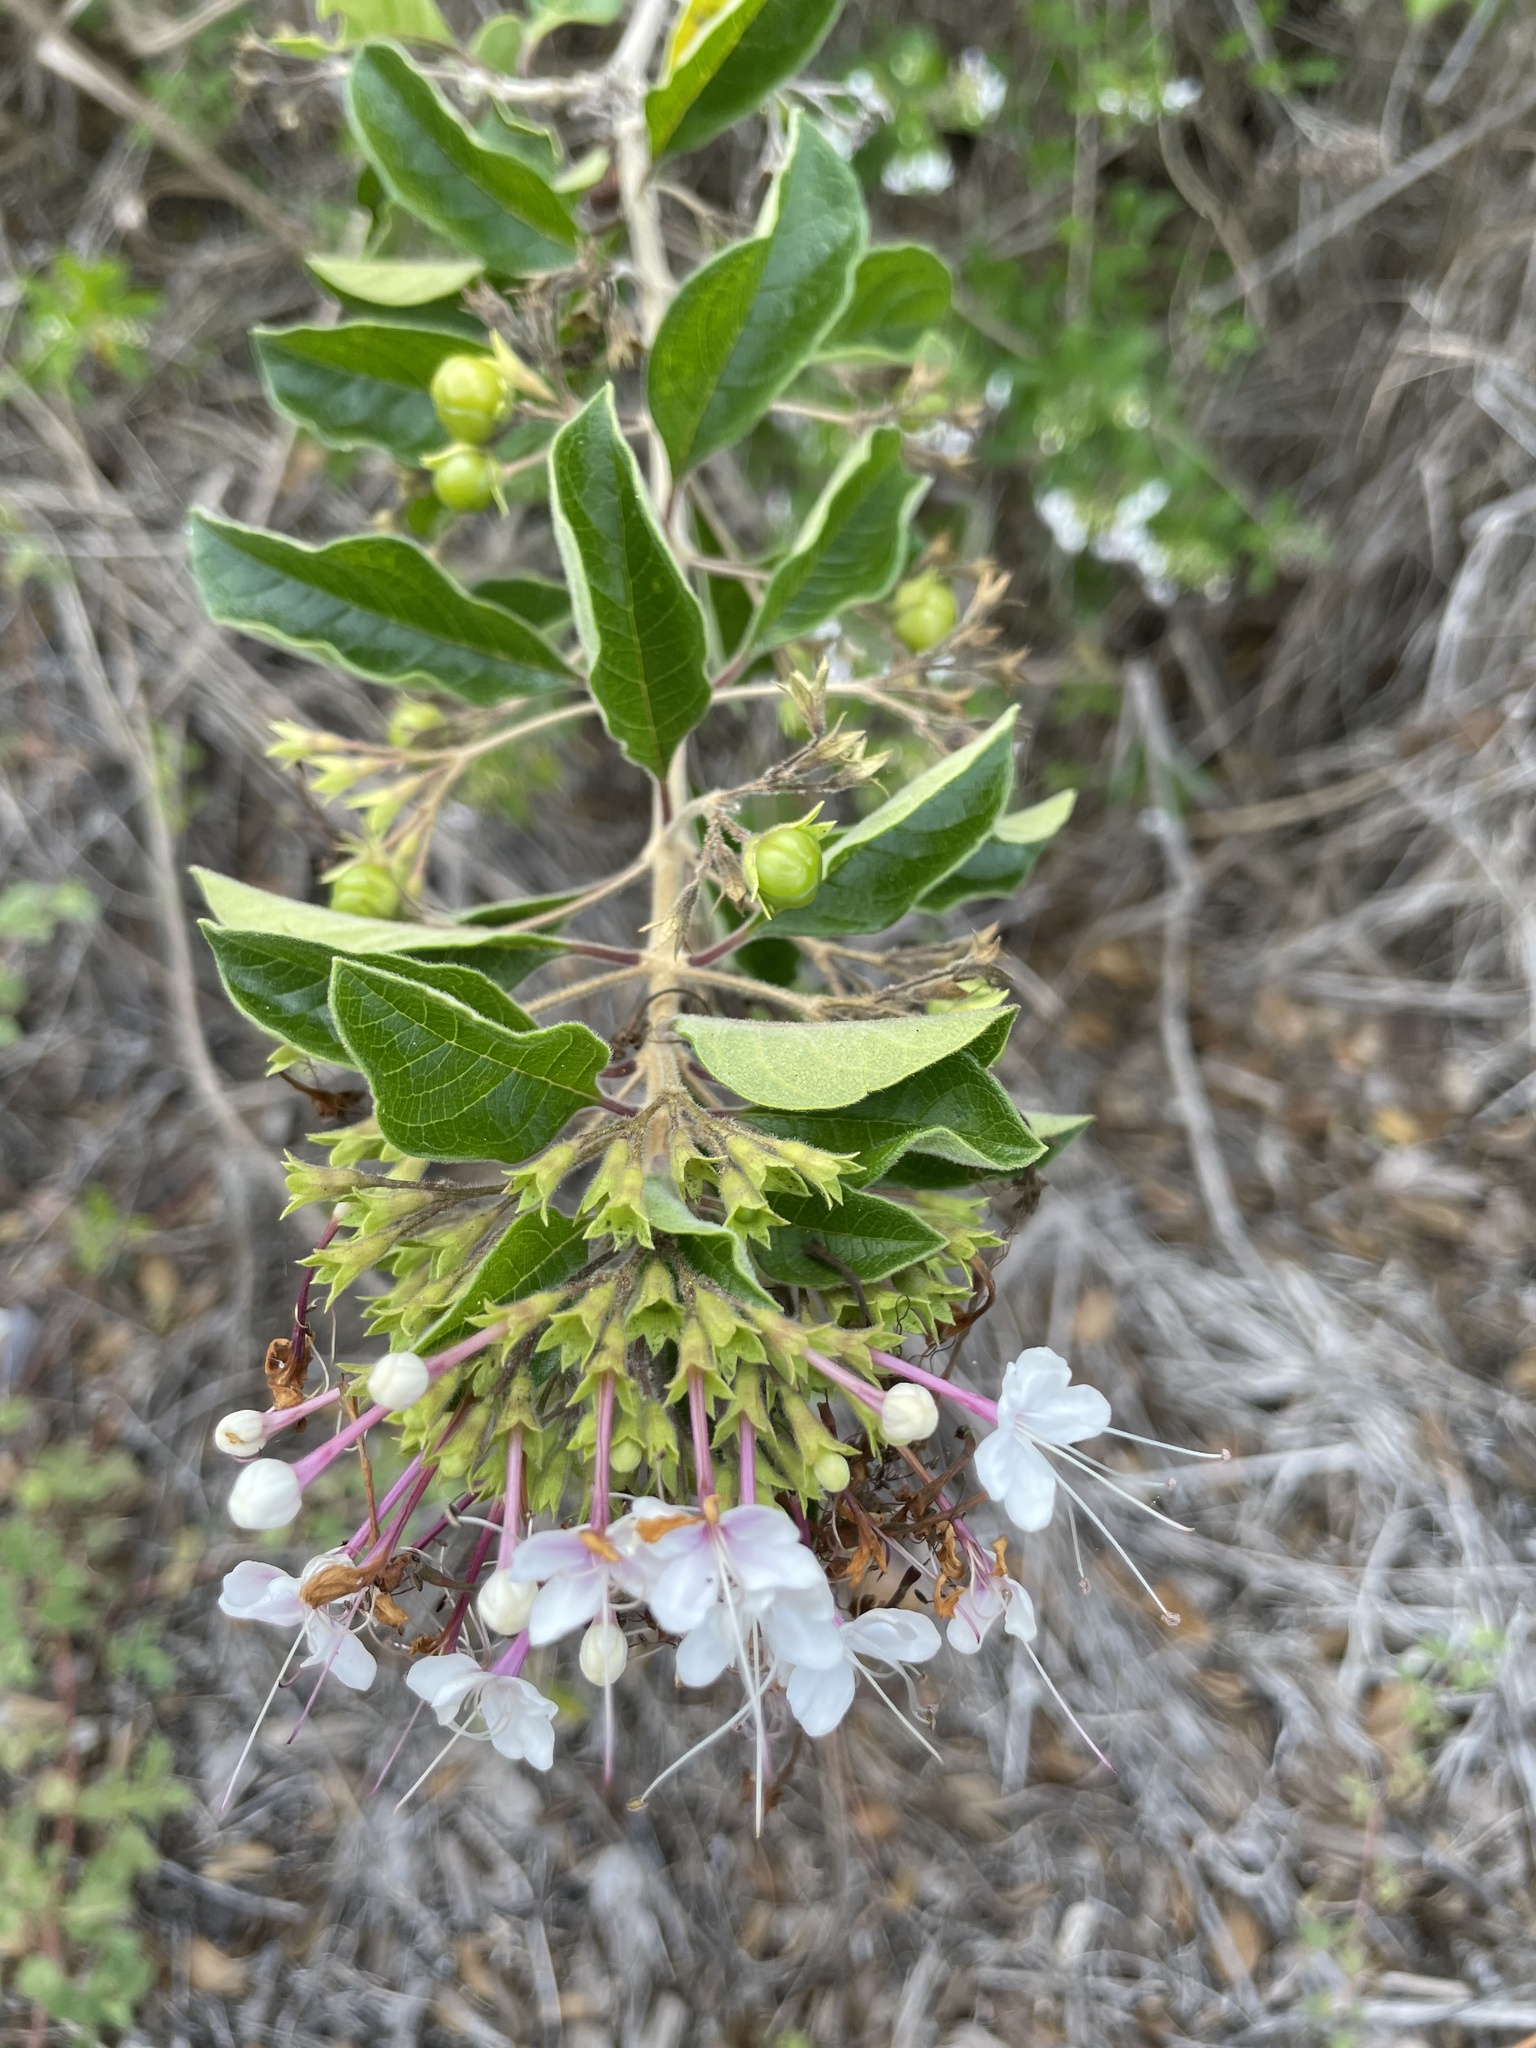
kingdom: Plantae
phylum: Tracheophyta
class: Magnoliopsida
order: Lamiales
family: Lamiaceae
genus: Volkameria
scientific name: Volkameria mollis
